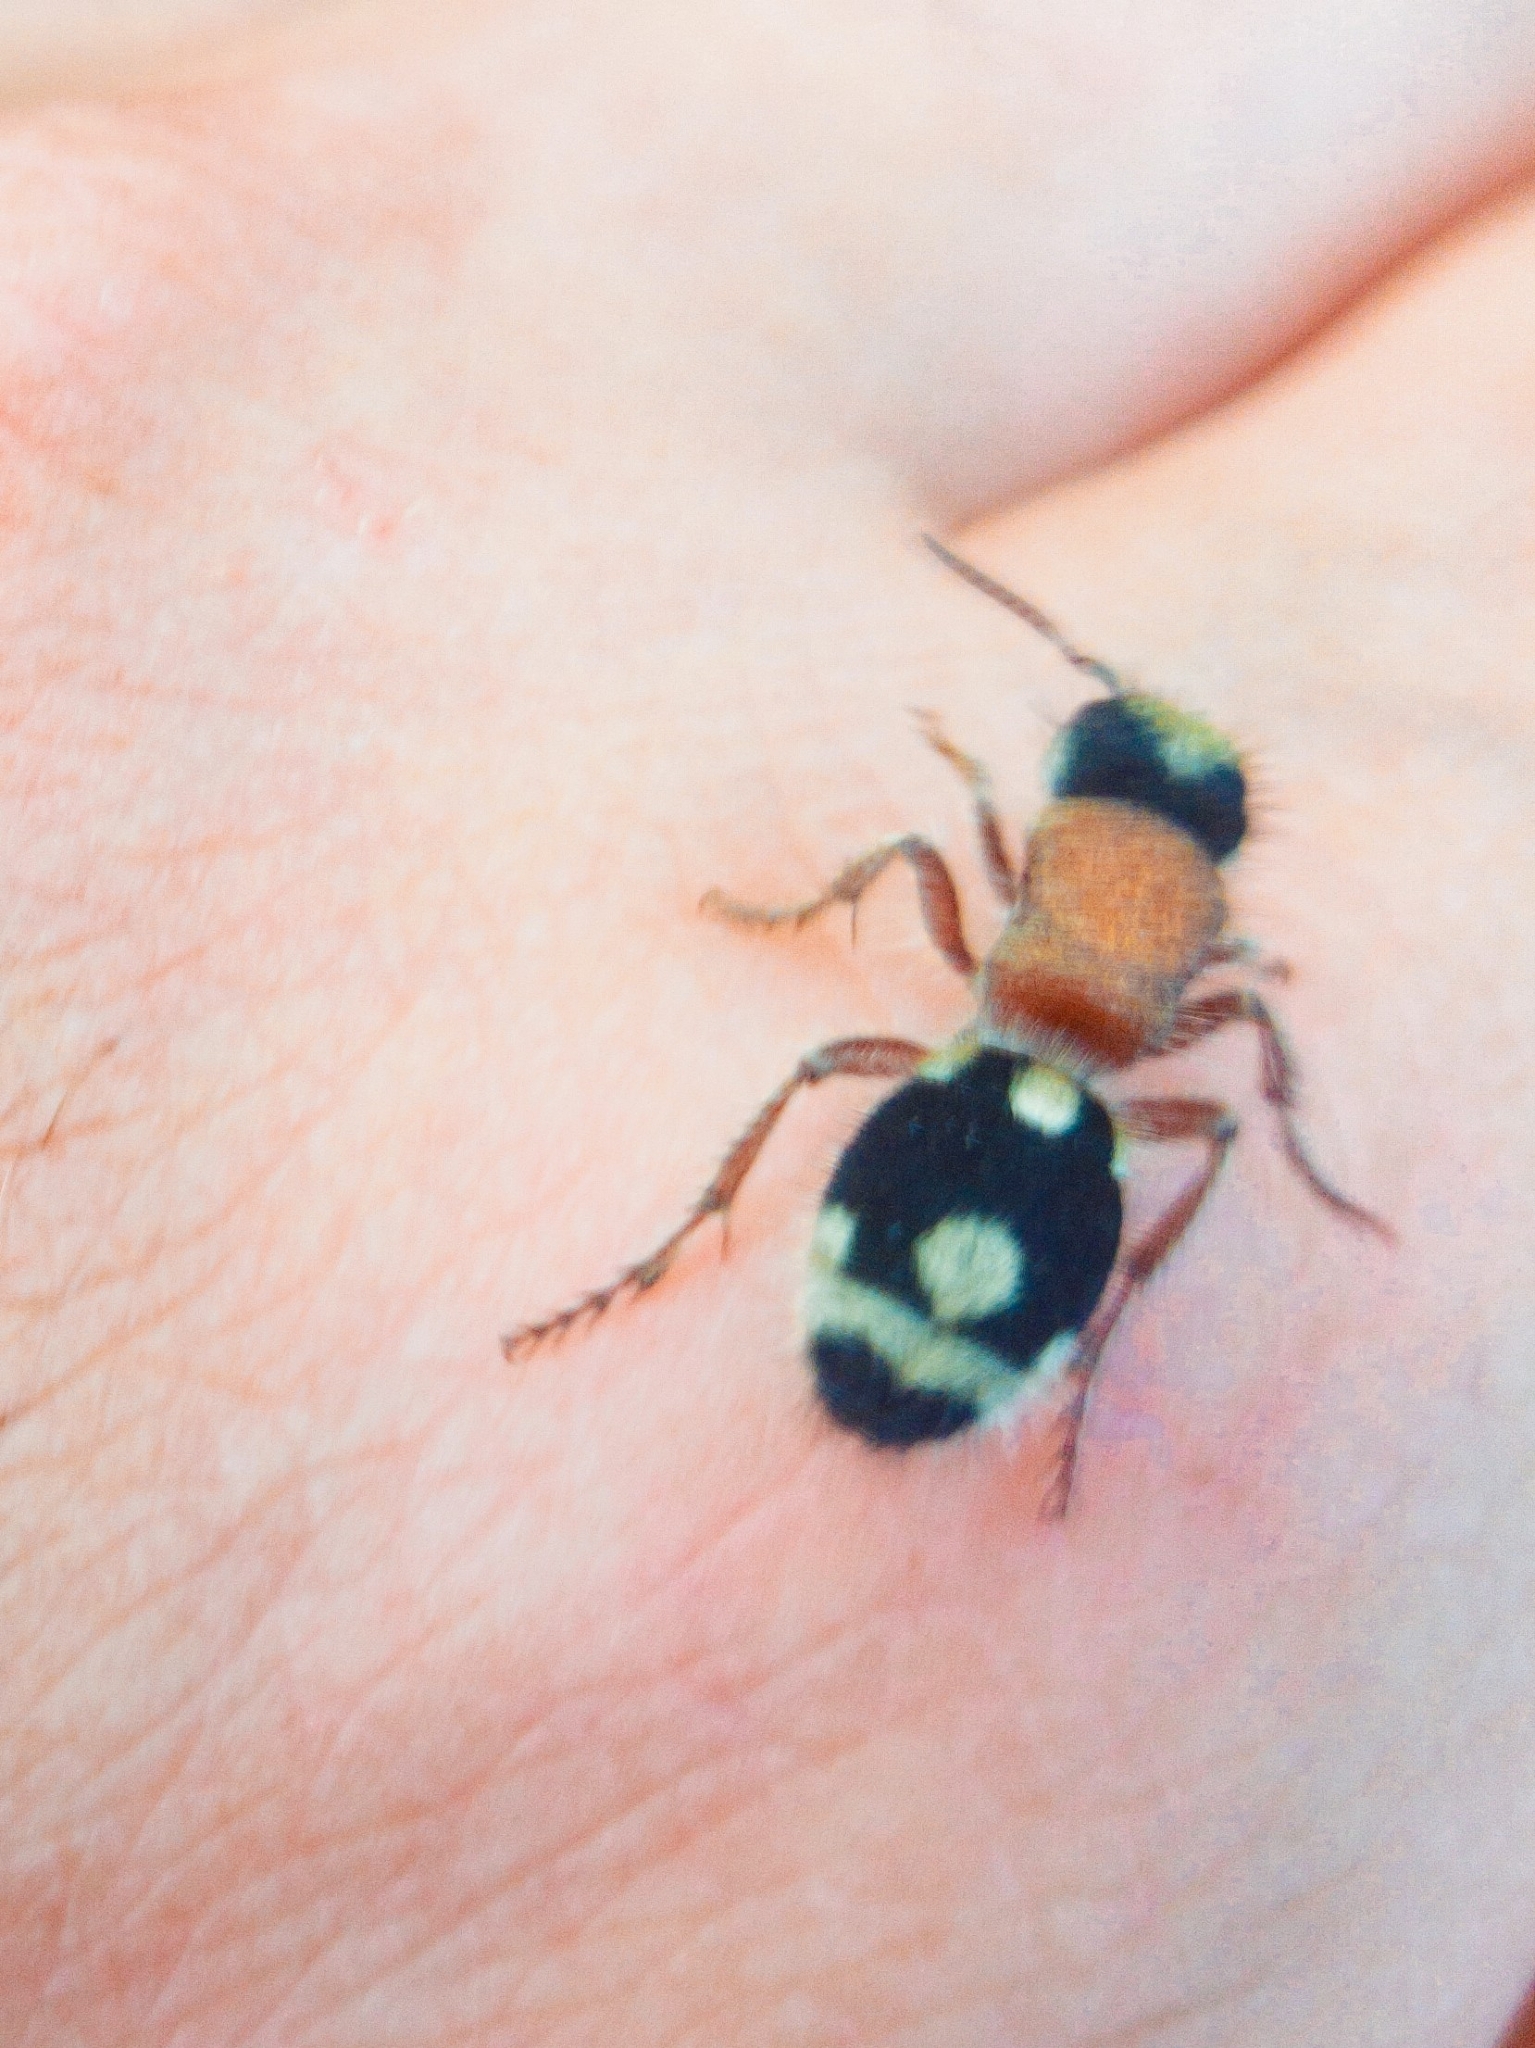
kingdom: Animalia
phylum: Arthropoda
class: Insecta
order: Hymenoptera
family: Mutillidae
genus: Ronisia
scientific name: Ronisia ghilianii
